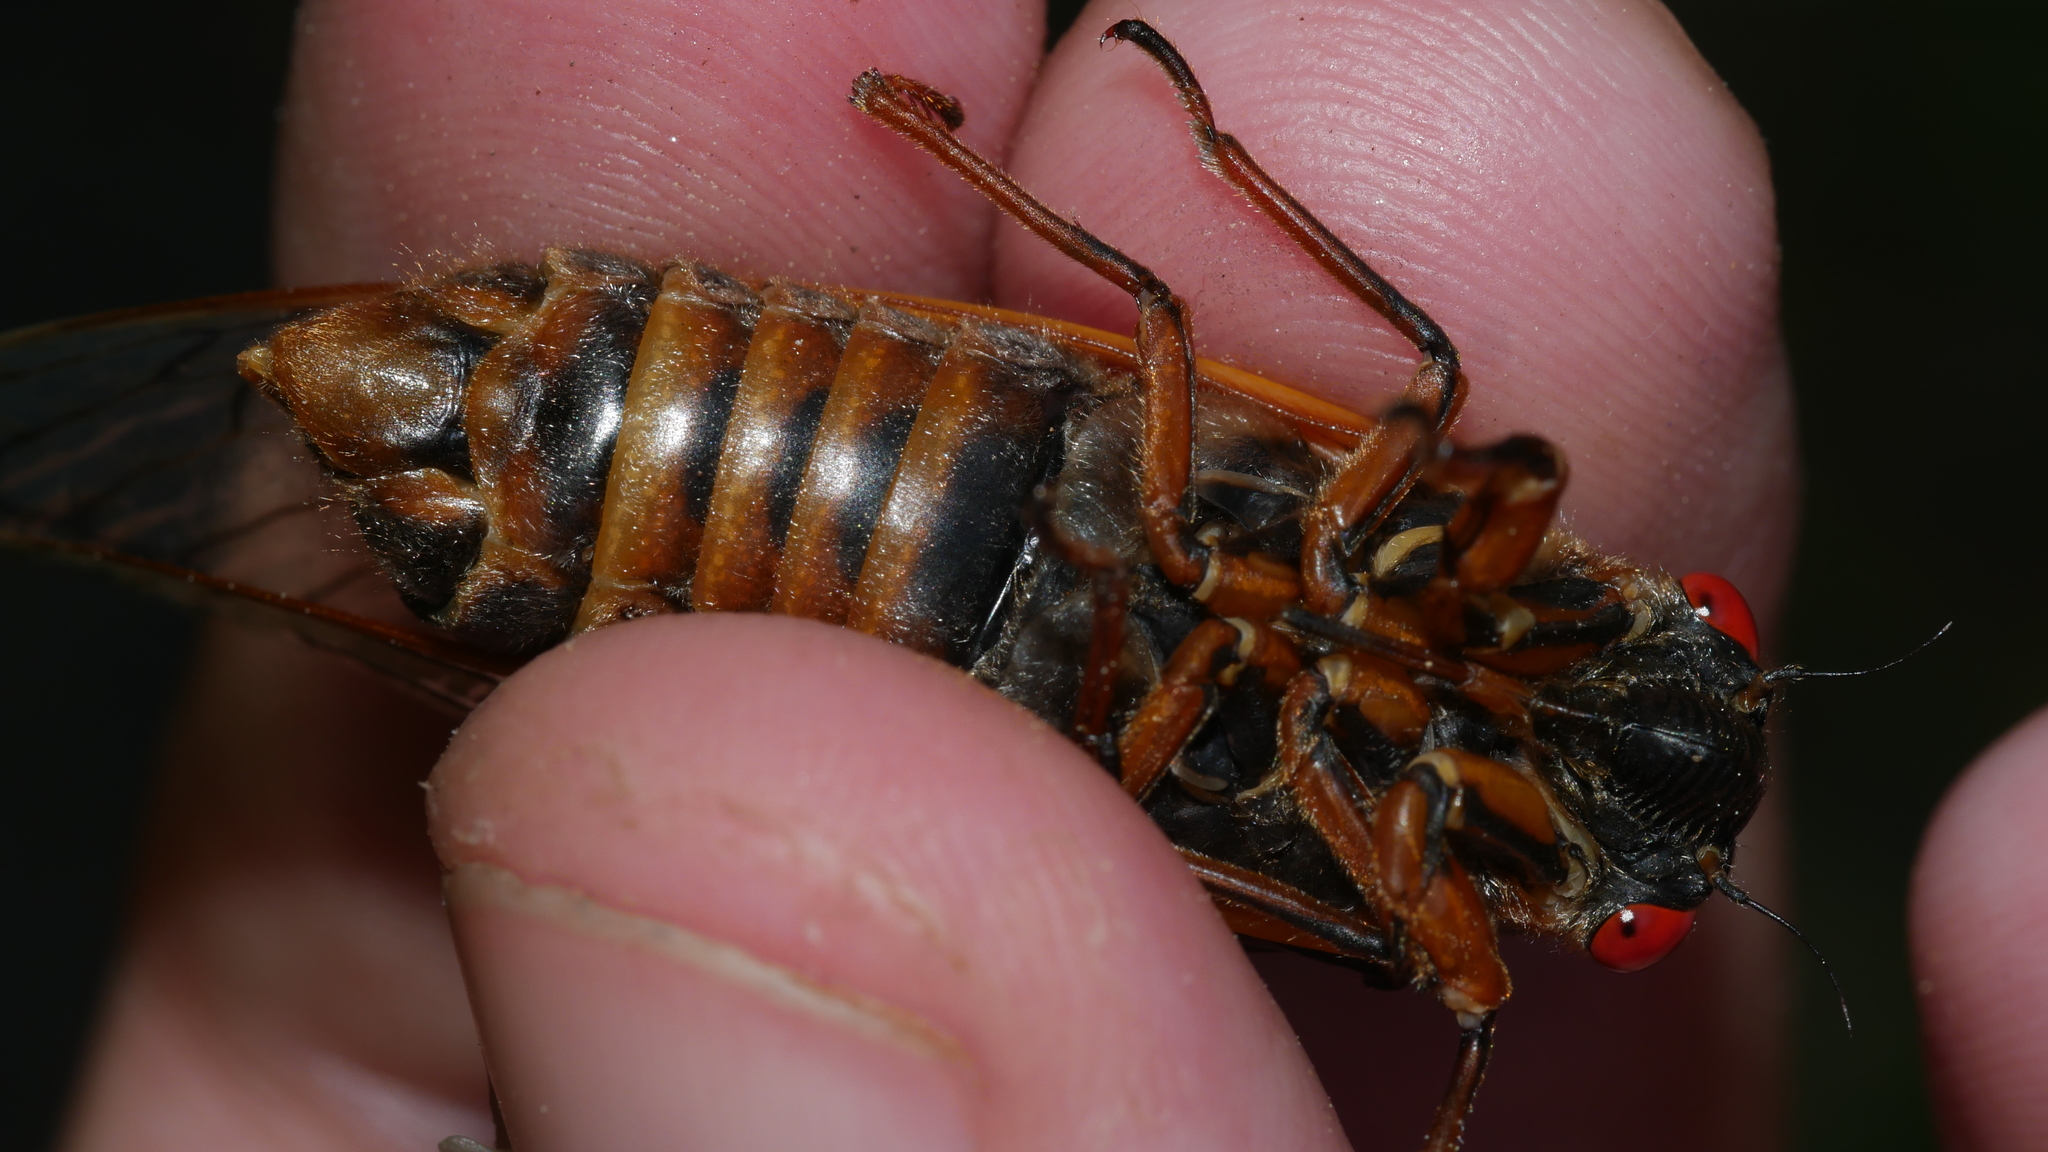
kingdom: Animalia
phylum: Arthropoda
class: Insecta
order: Hemiptera
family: Cicadidae
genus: Magicicada
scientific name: Magicicada septendecim
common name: Periodical cicada
